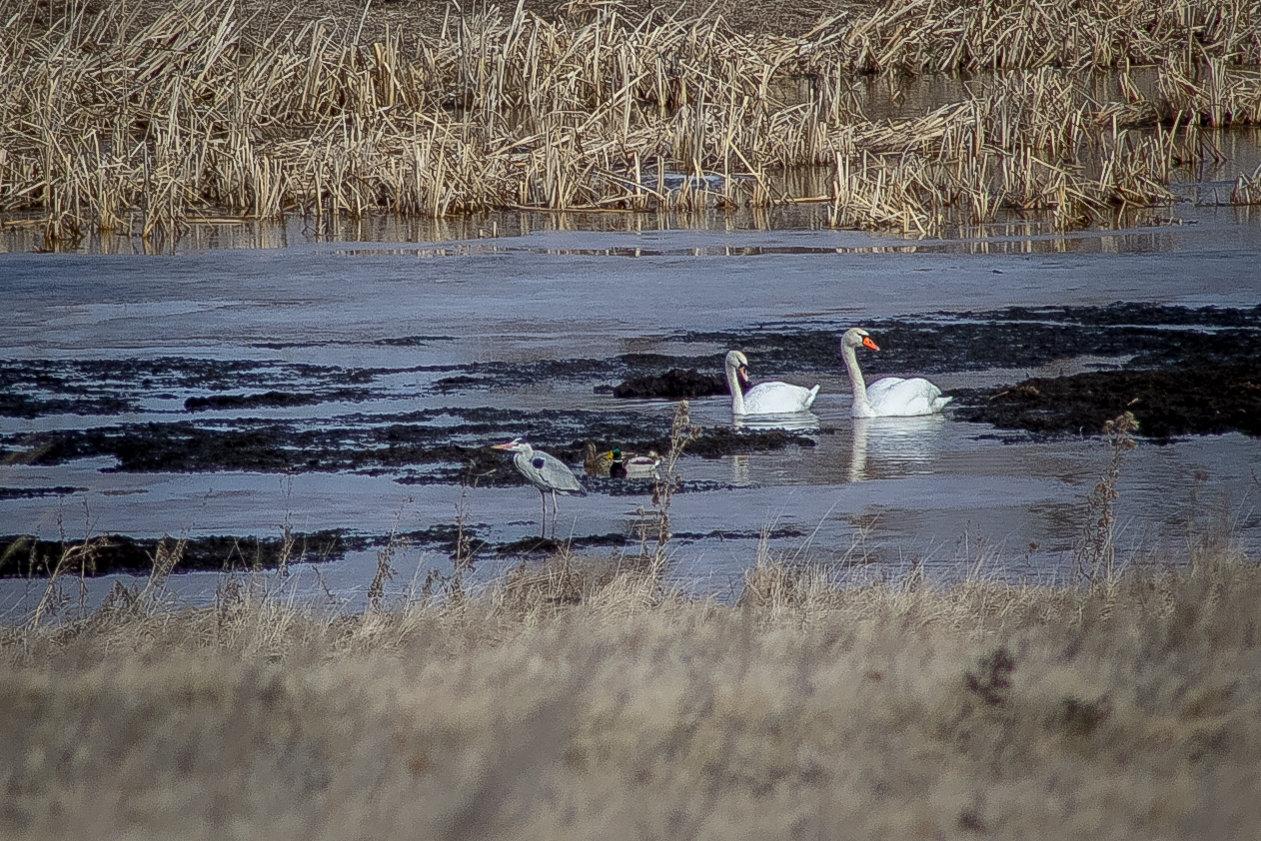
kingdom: Animalia
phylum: Chordata
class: Aves
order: Pelecaniformes
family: Ardeidae
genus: Ardea
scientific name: Ardea cinerea
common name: Grey heron
